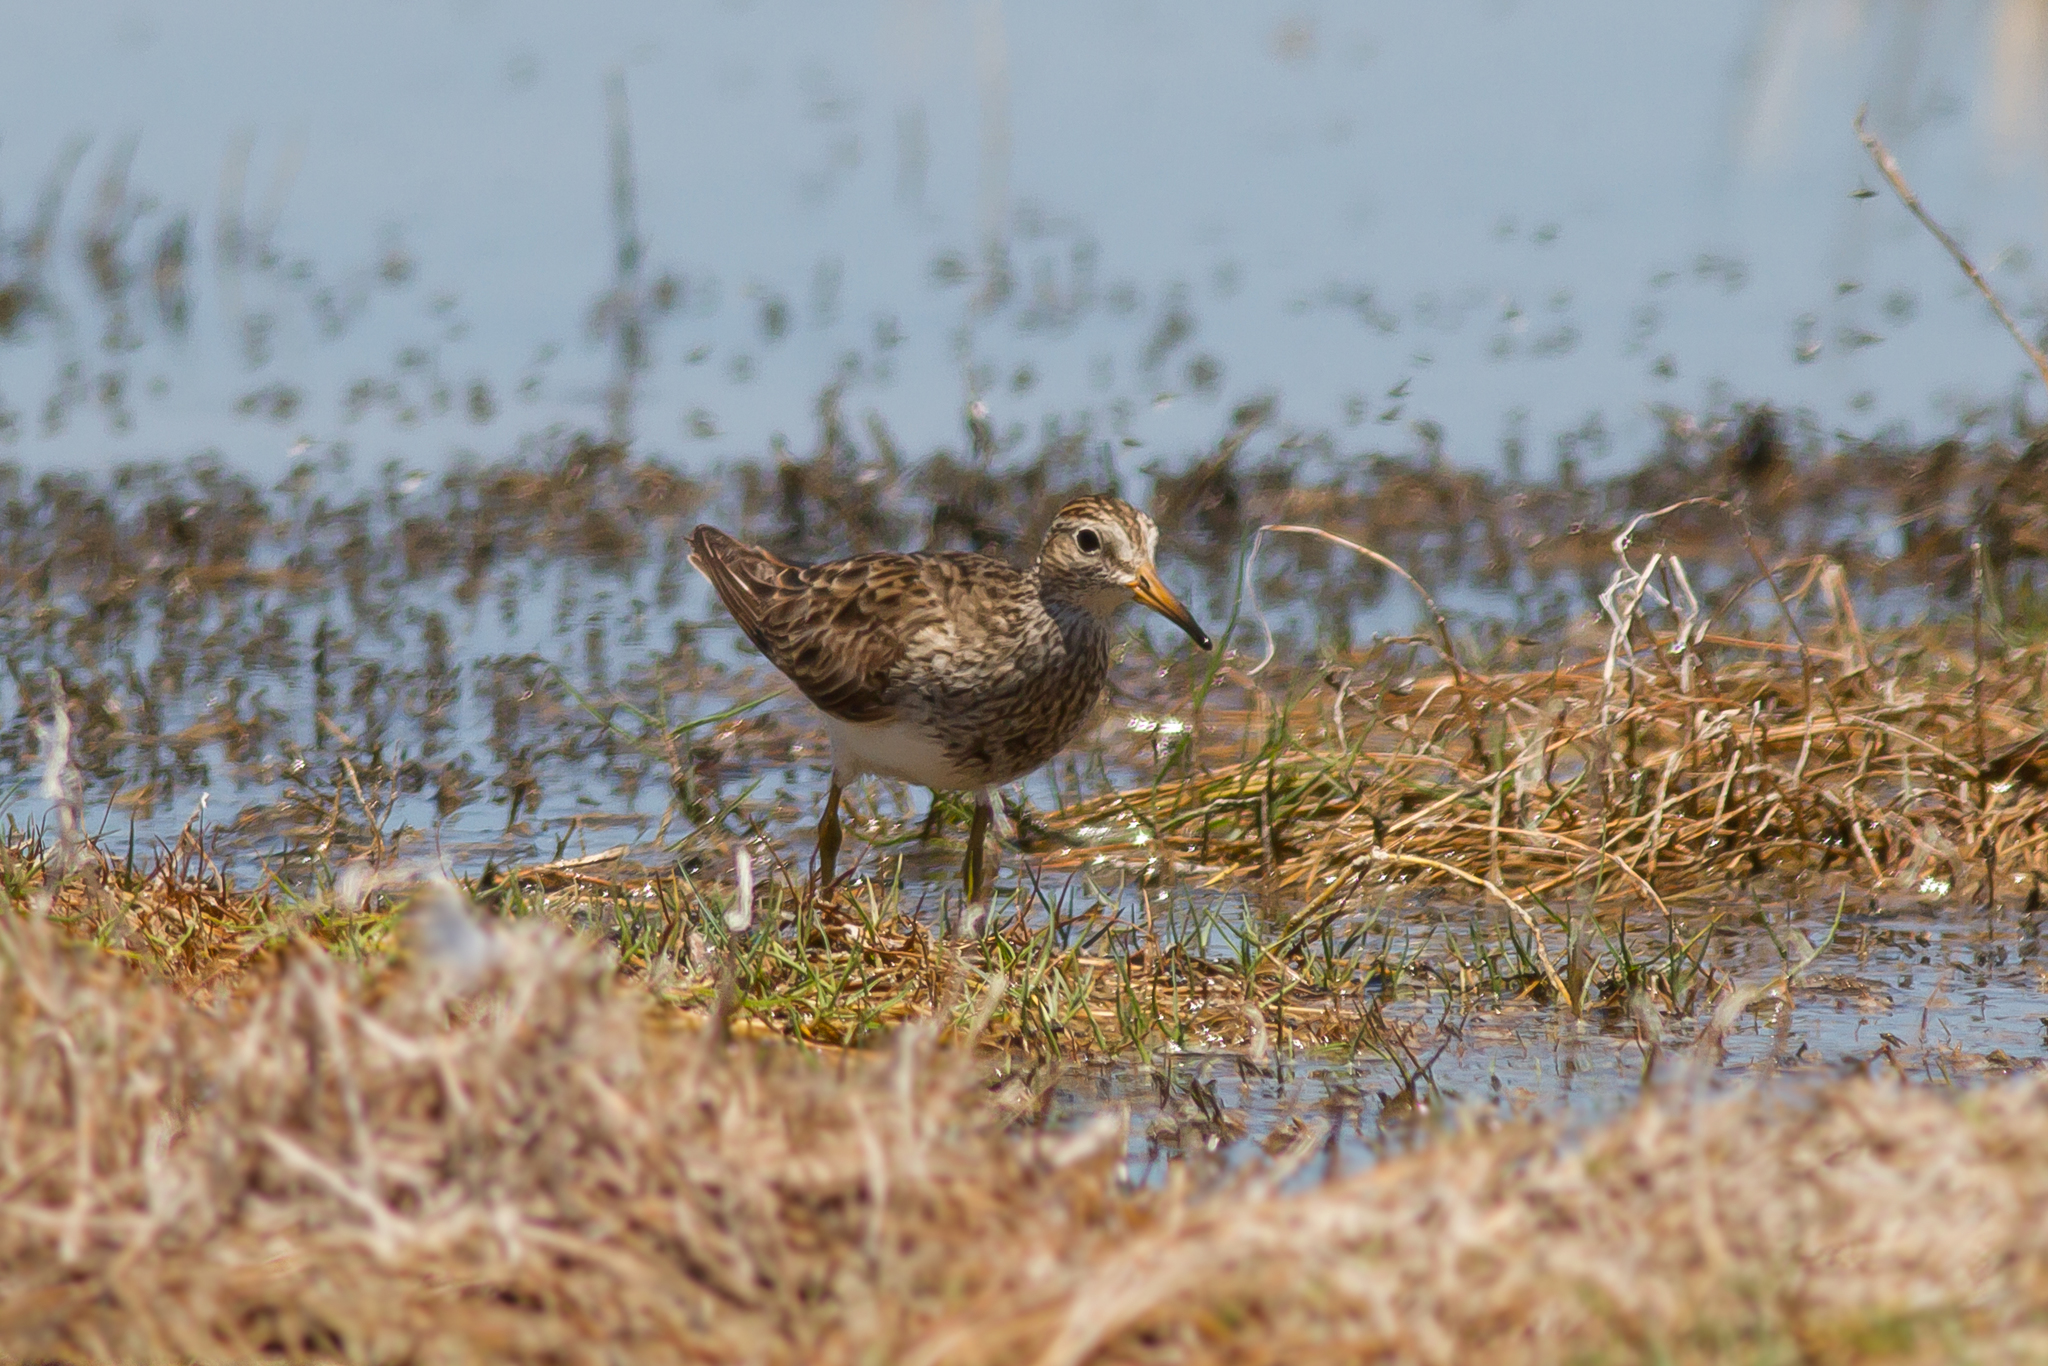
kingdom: Animalia
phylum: Chordata
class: Aves
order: Charadriiformes
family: Scolopacidae
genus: Calidris
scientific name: Calidris melanotos
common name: Pectoral sandpiper
